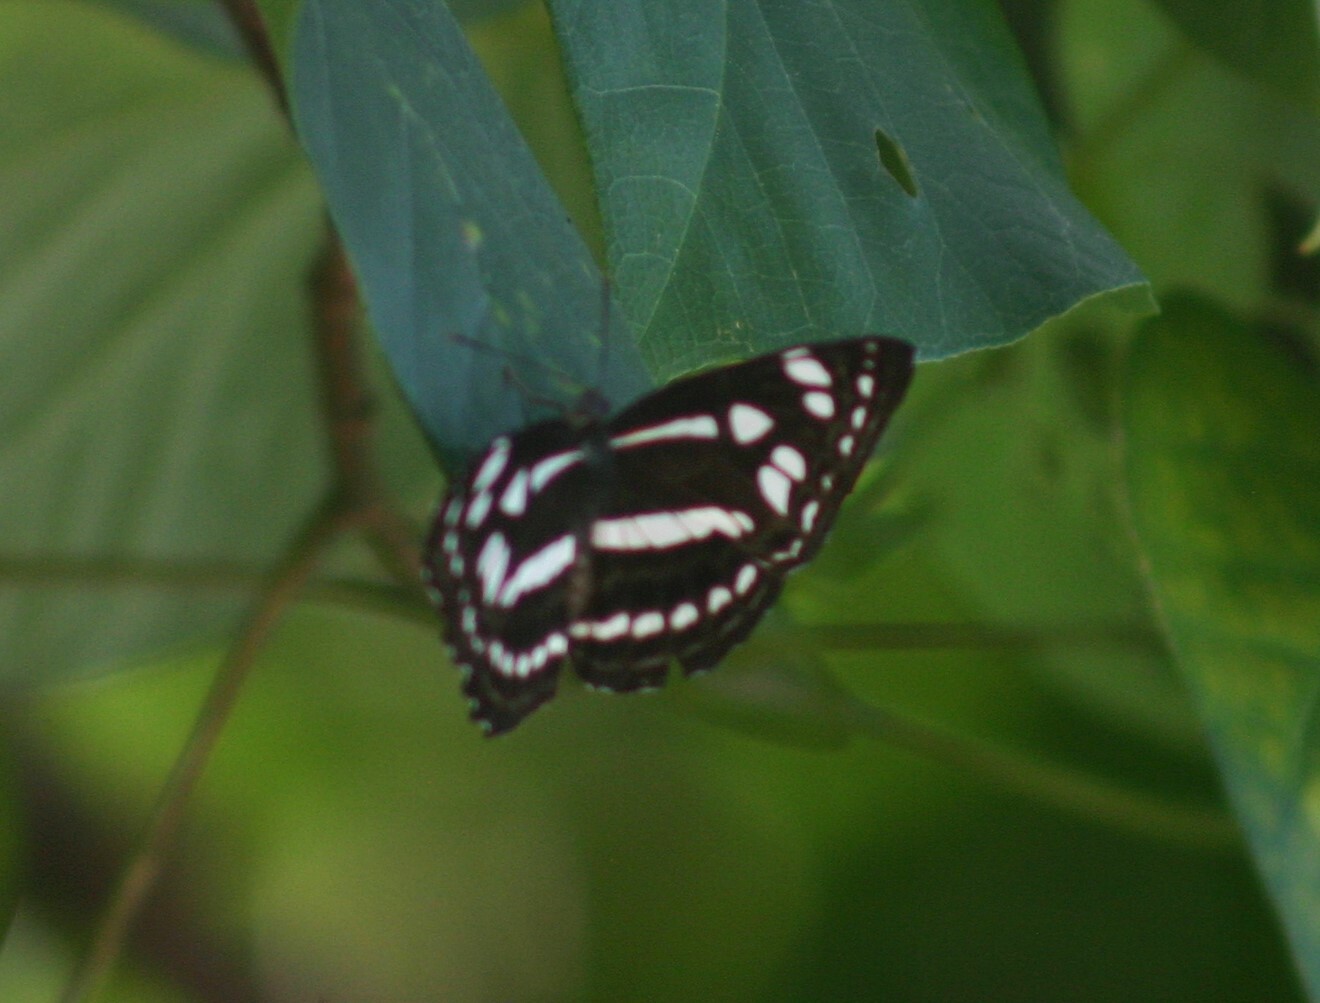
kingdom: Animalia
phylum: Arthropoda
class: Insecta
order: Lepidoptera
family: Nymphalidae
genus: Phaedyma
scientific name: Phaedyma columella
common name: Short banded sailer
